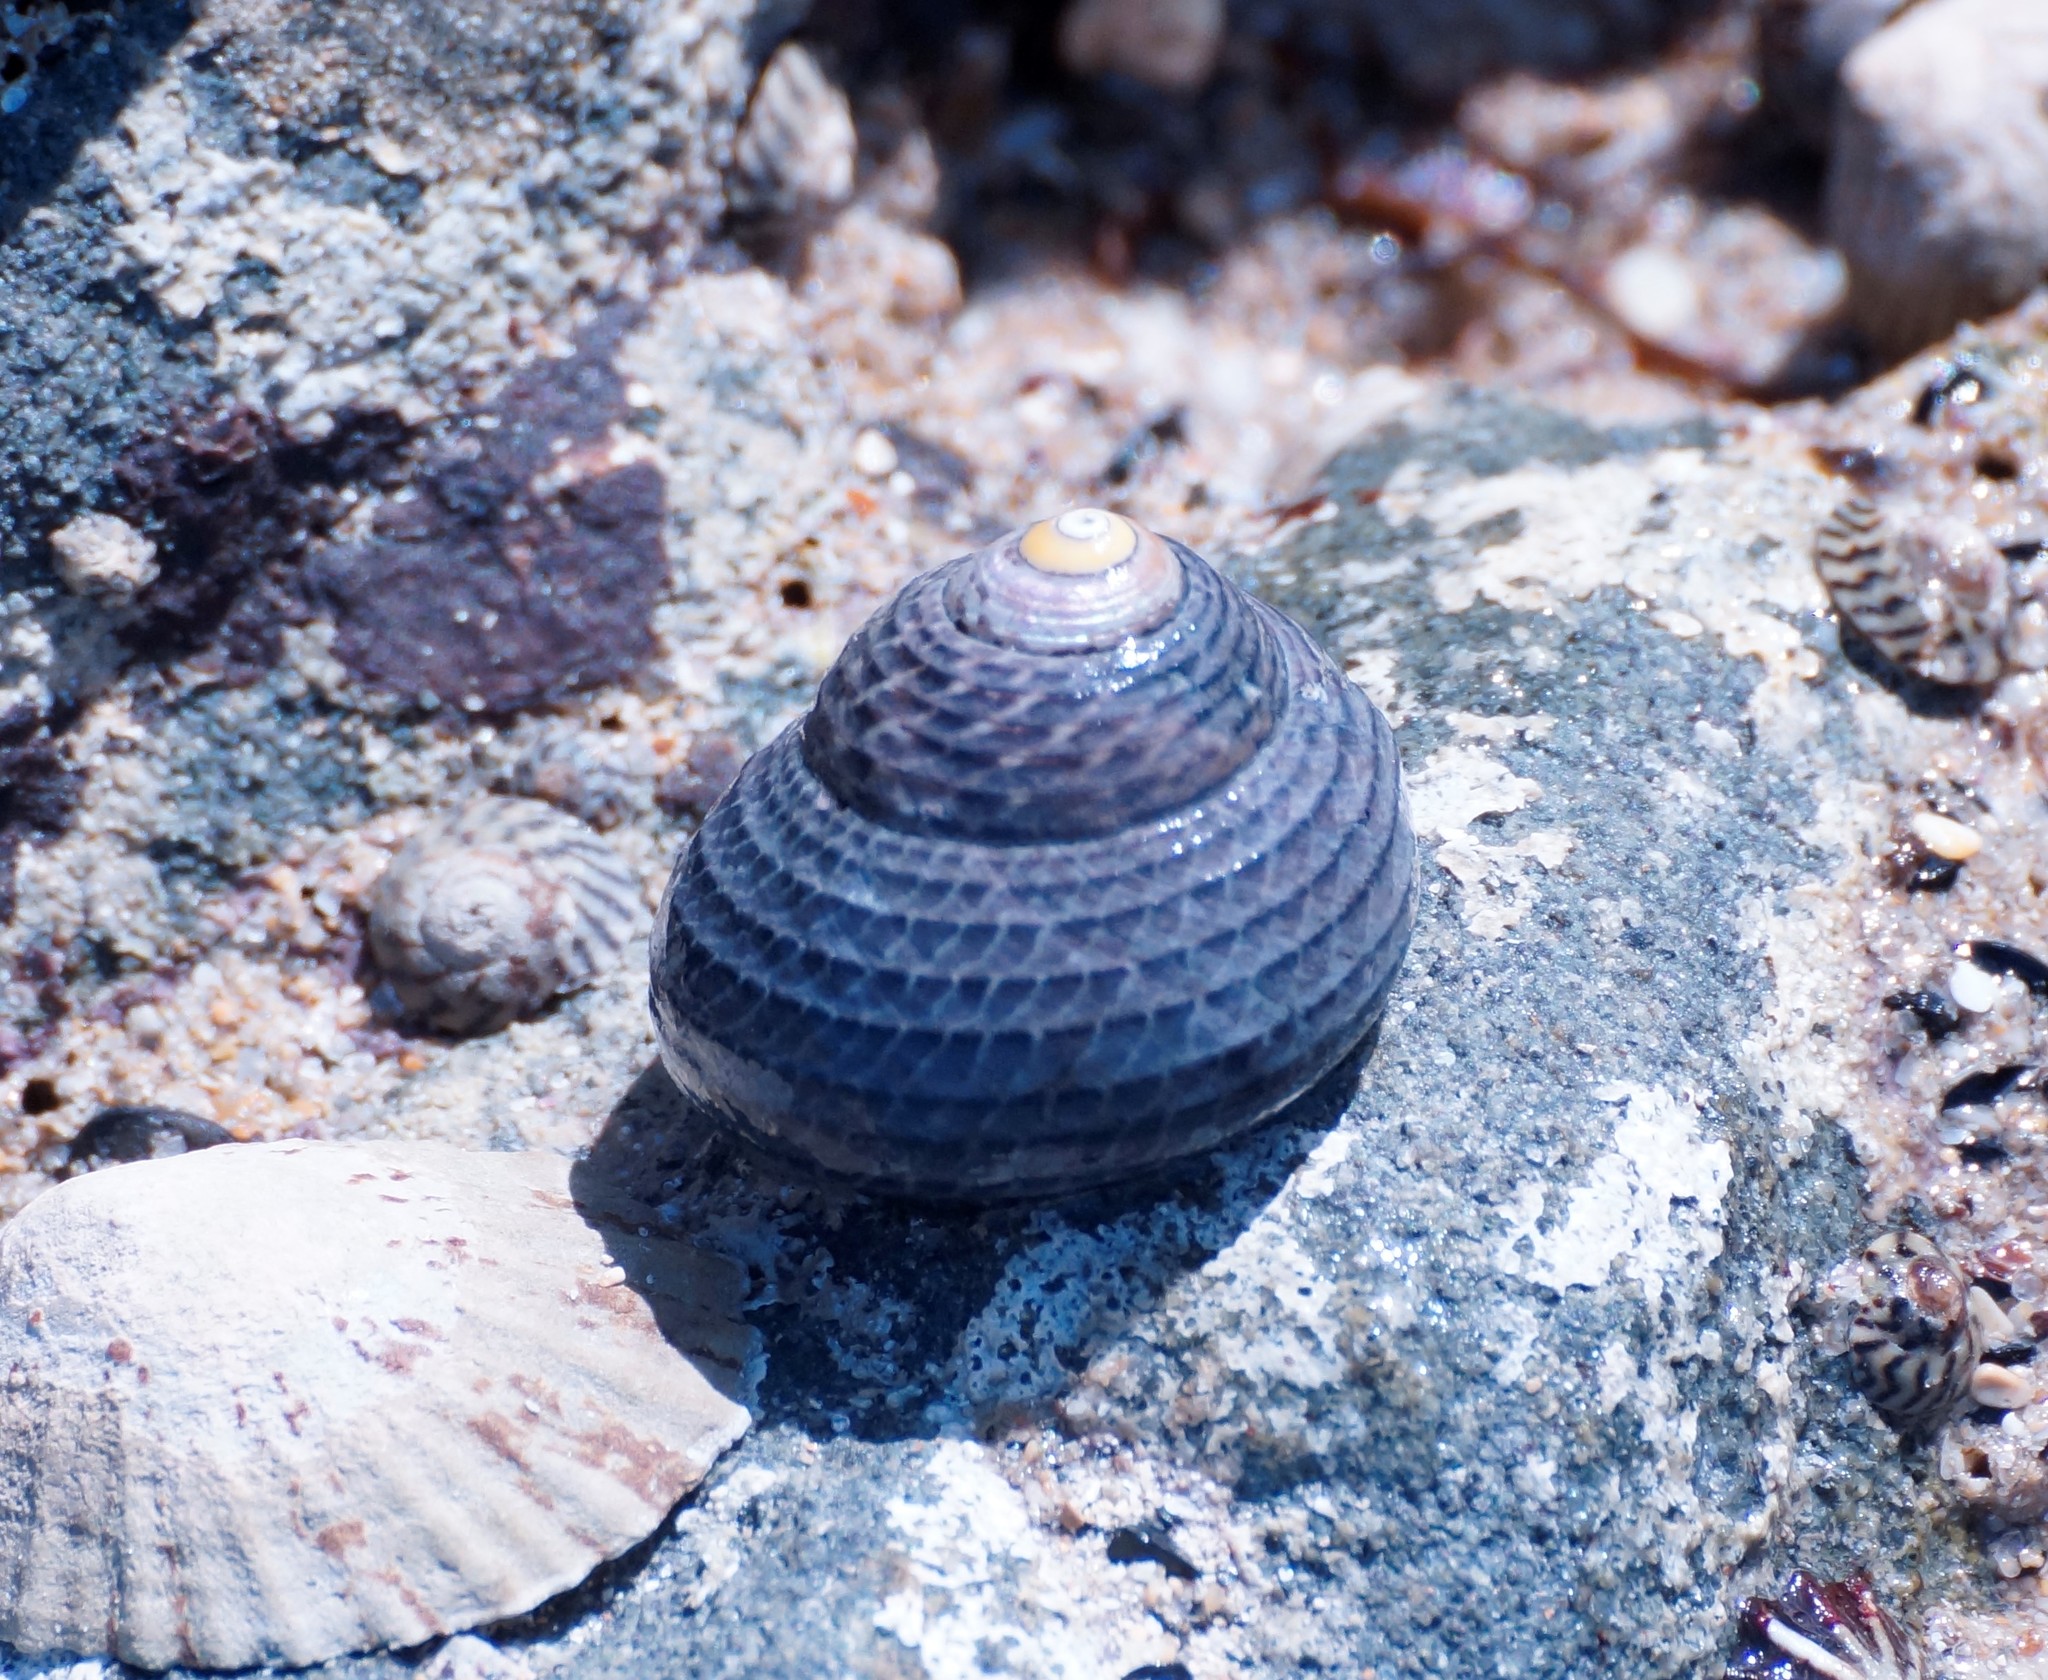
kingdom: Animalia
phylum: Mollusca
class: Gastropoda
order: Trochida
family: Trochidae
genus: Chlorodiloma
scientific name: Chlorodiloma adelaidae
